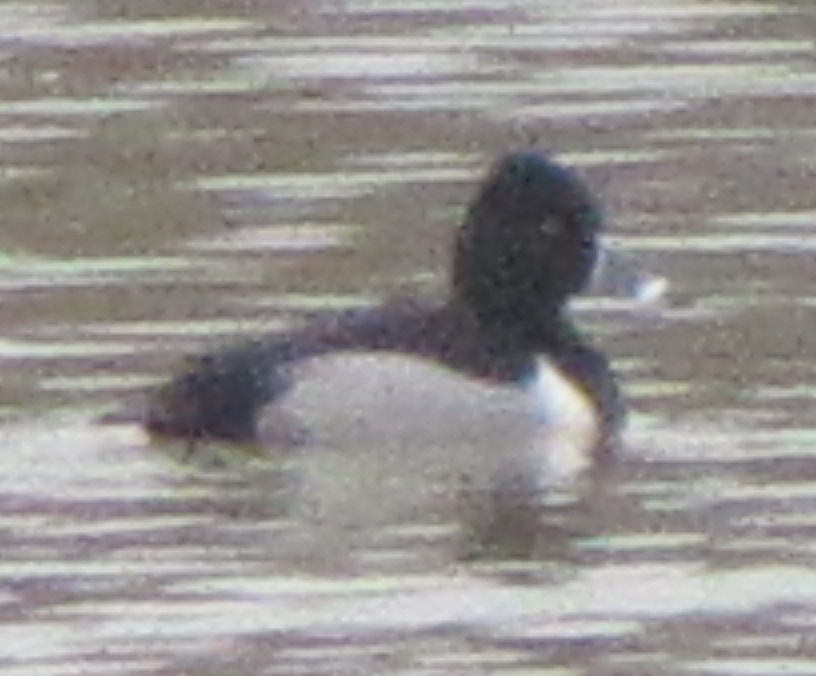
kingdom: Animalia
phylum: Chordata
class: Aves
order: Anseriformes
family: Anatidae
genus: Aythya
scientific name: Aythya collaris
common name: Ring-necked duck
